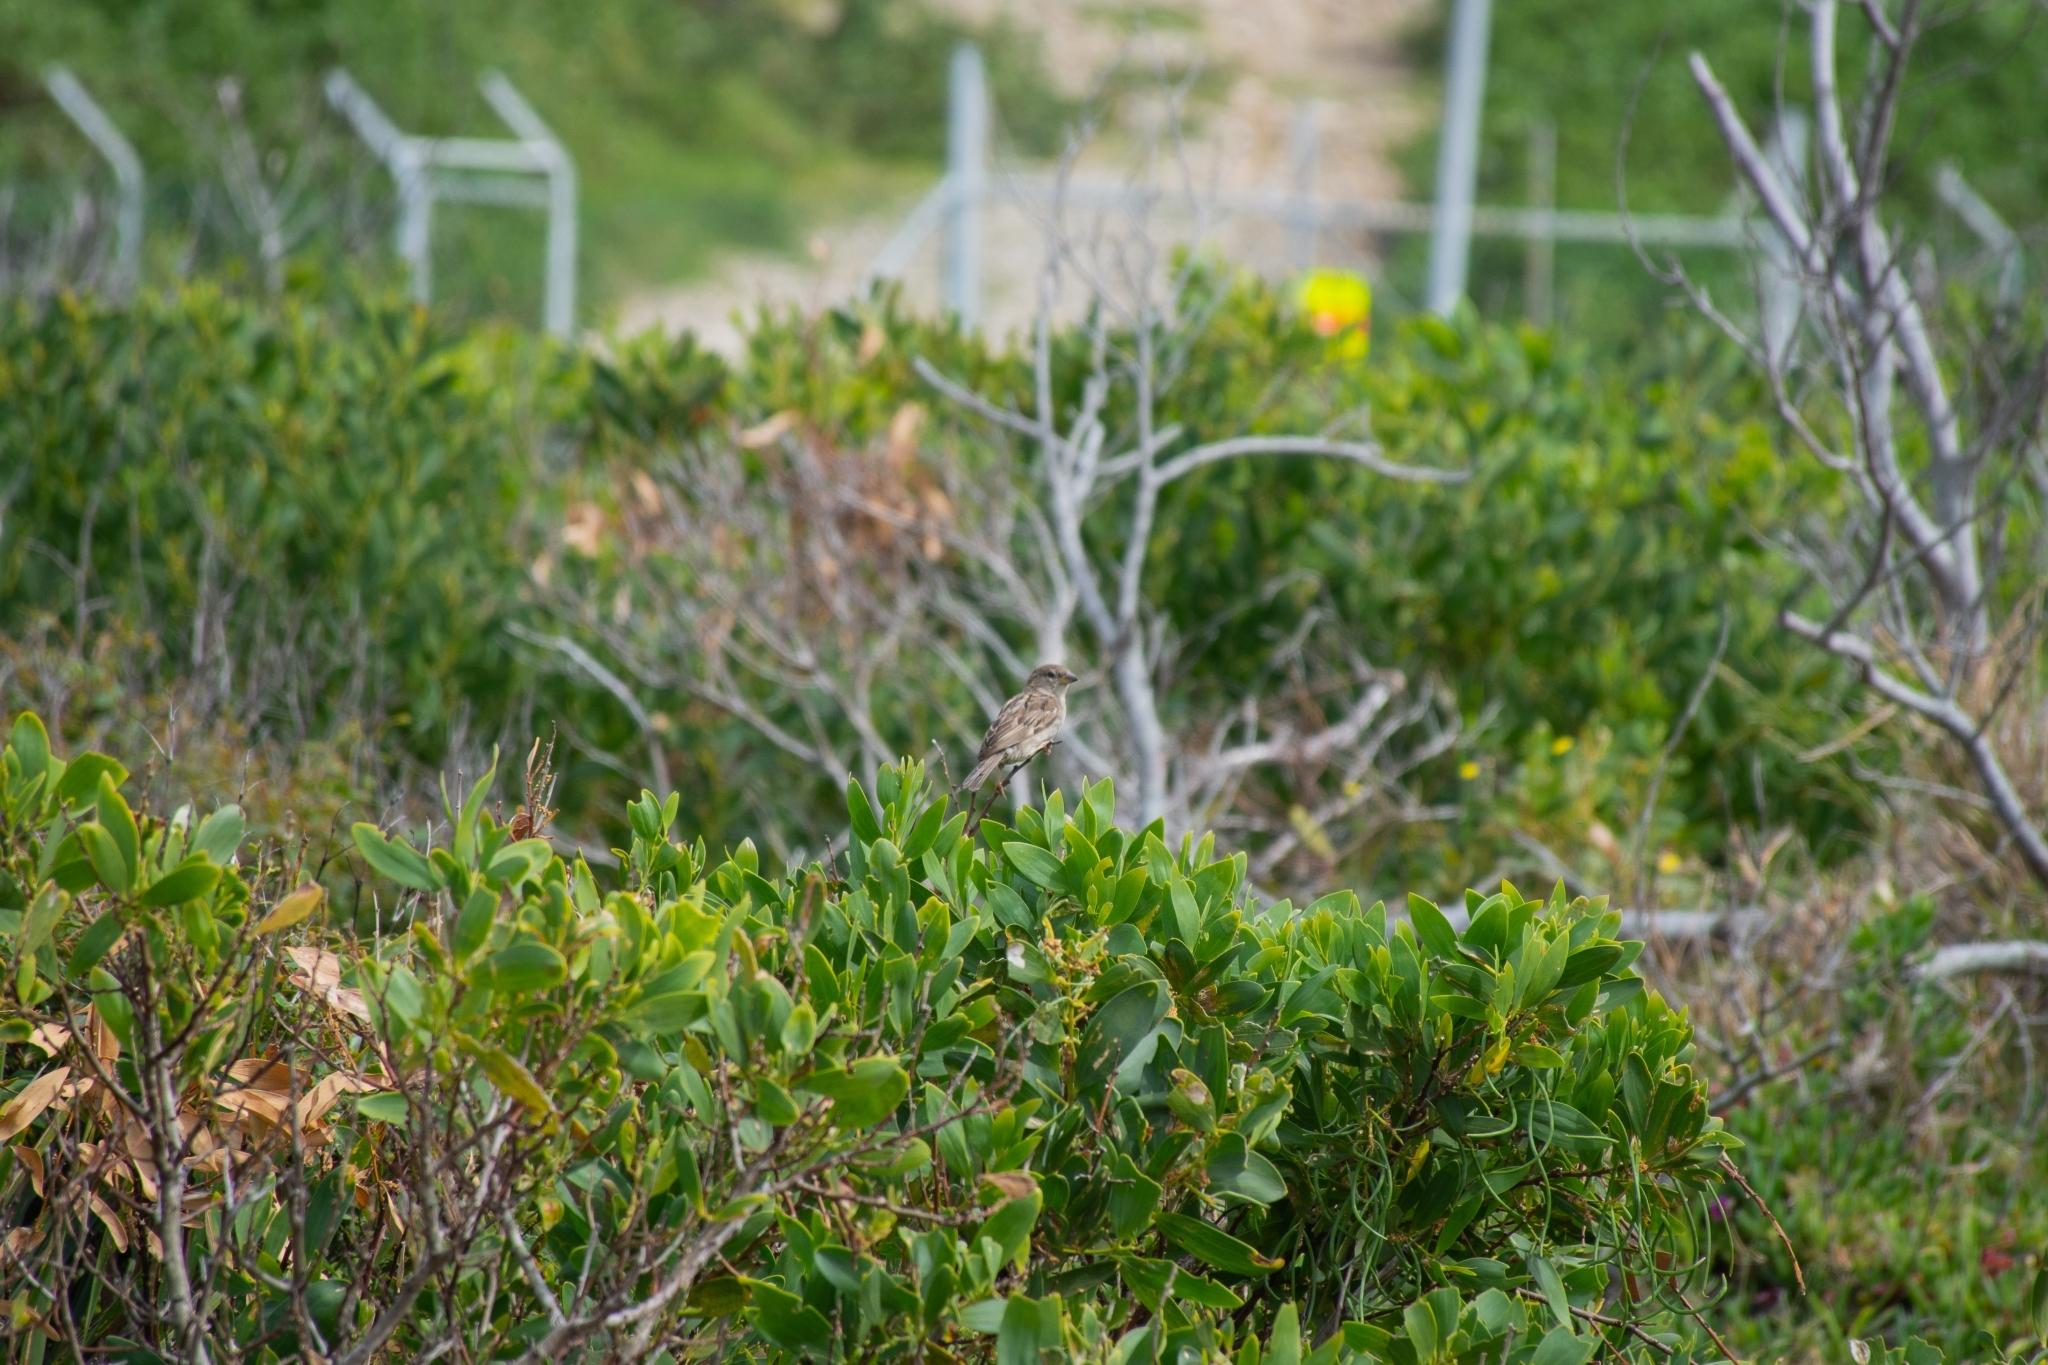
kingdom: Animalia
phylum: Chordata
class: Aves
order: Passeriformes
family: Passeridae
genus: Passer
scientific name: Passer domesticus
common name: House sparrow
